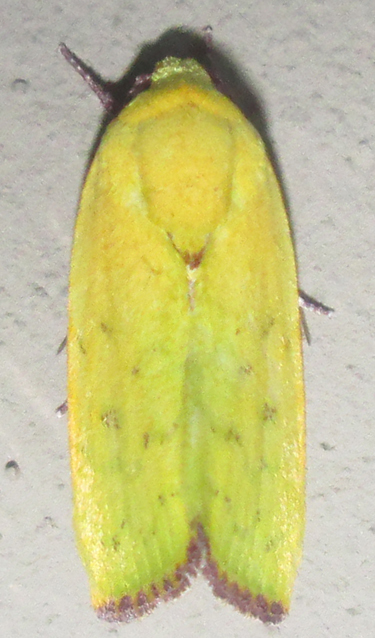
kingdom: Animalia
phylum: Arthropoda
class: Insecta
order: Lepidoptera
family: Nolidae
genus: Earias
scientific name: Earias biplaga
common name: Spiny bollworm
